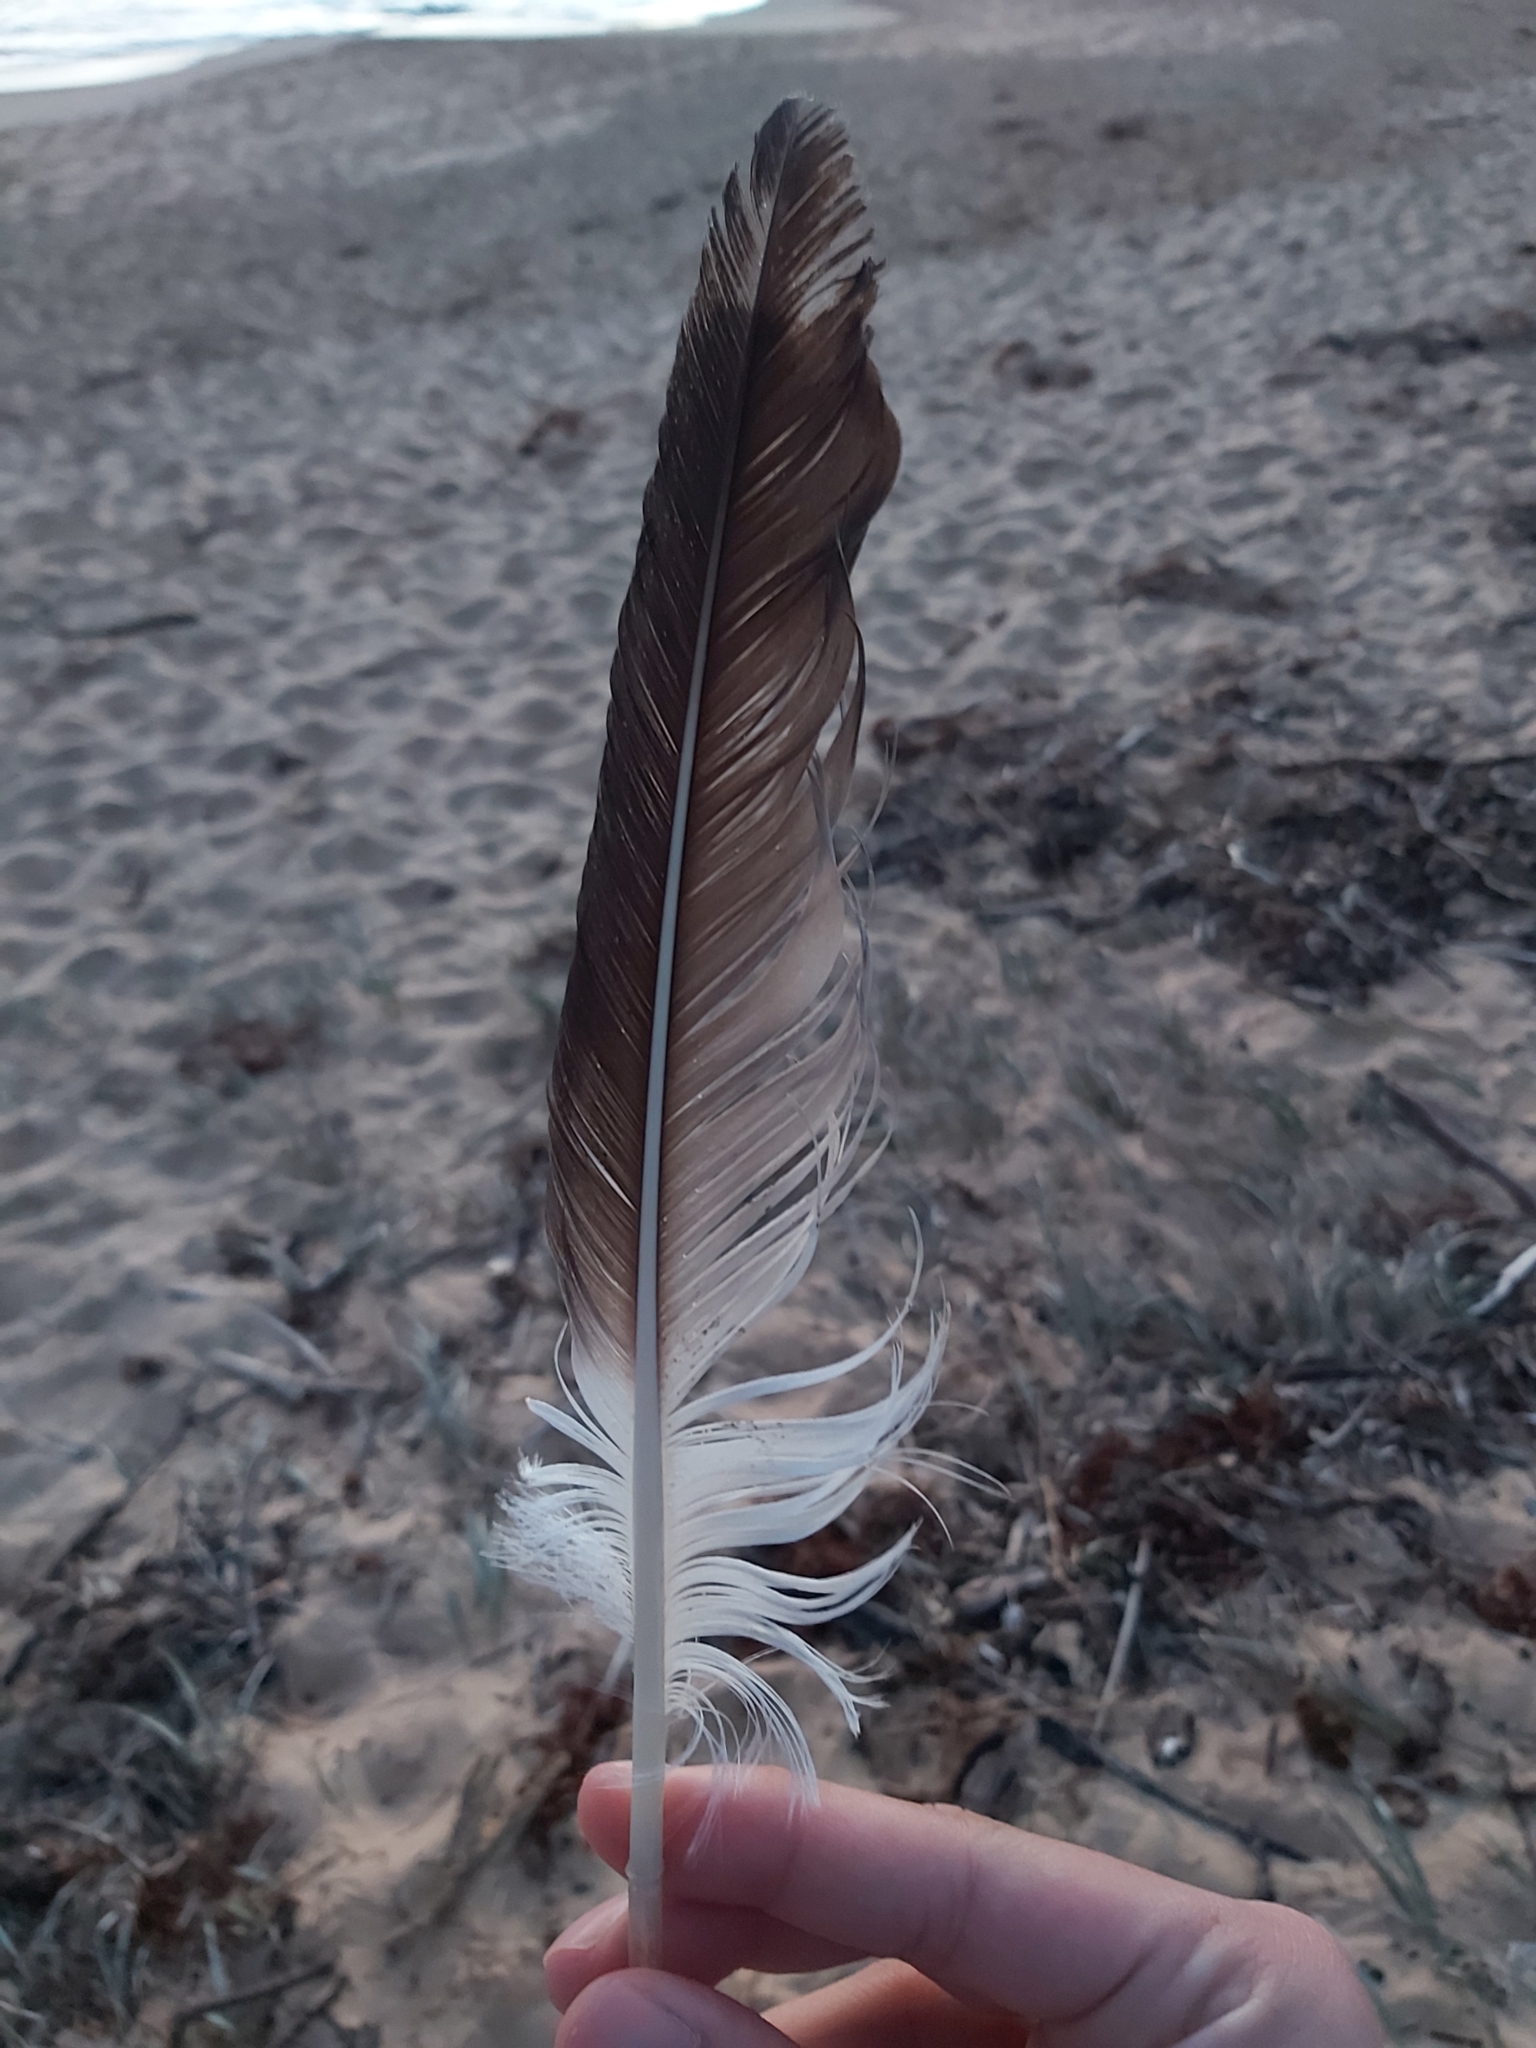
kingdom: Animalia
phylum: Chordata
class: Aves
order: Suliformes
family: Sulidae
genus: Morus
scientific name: Morus serrator
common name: Australasian gannet
